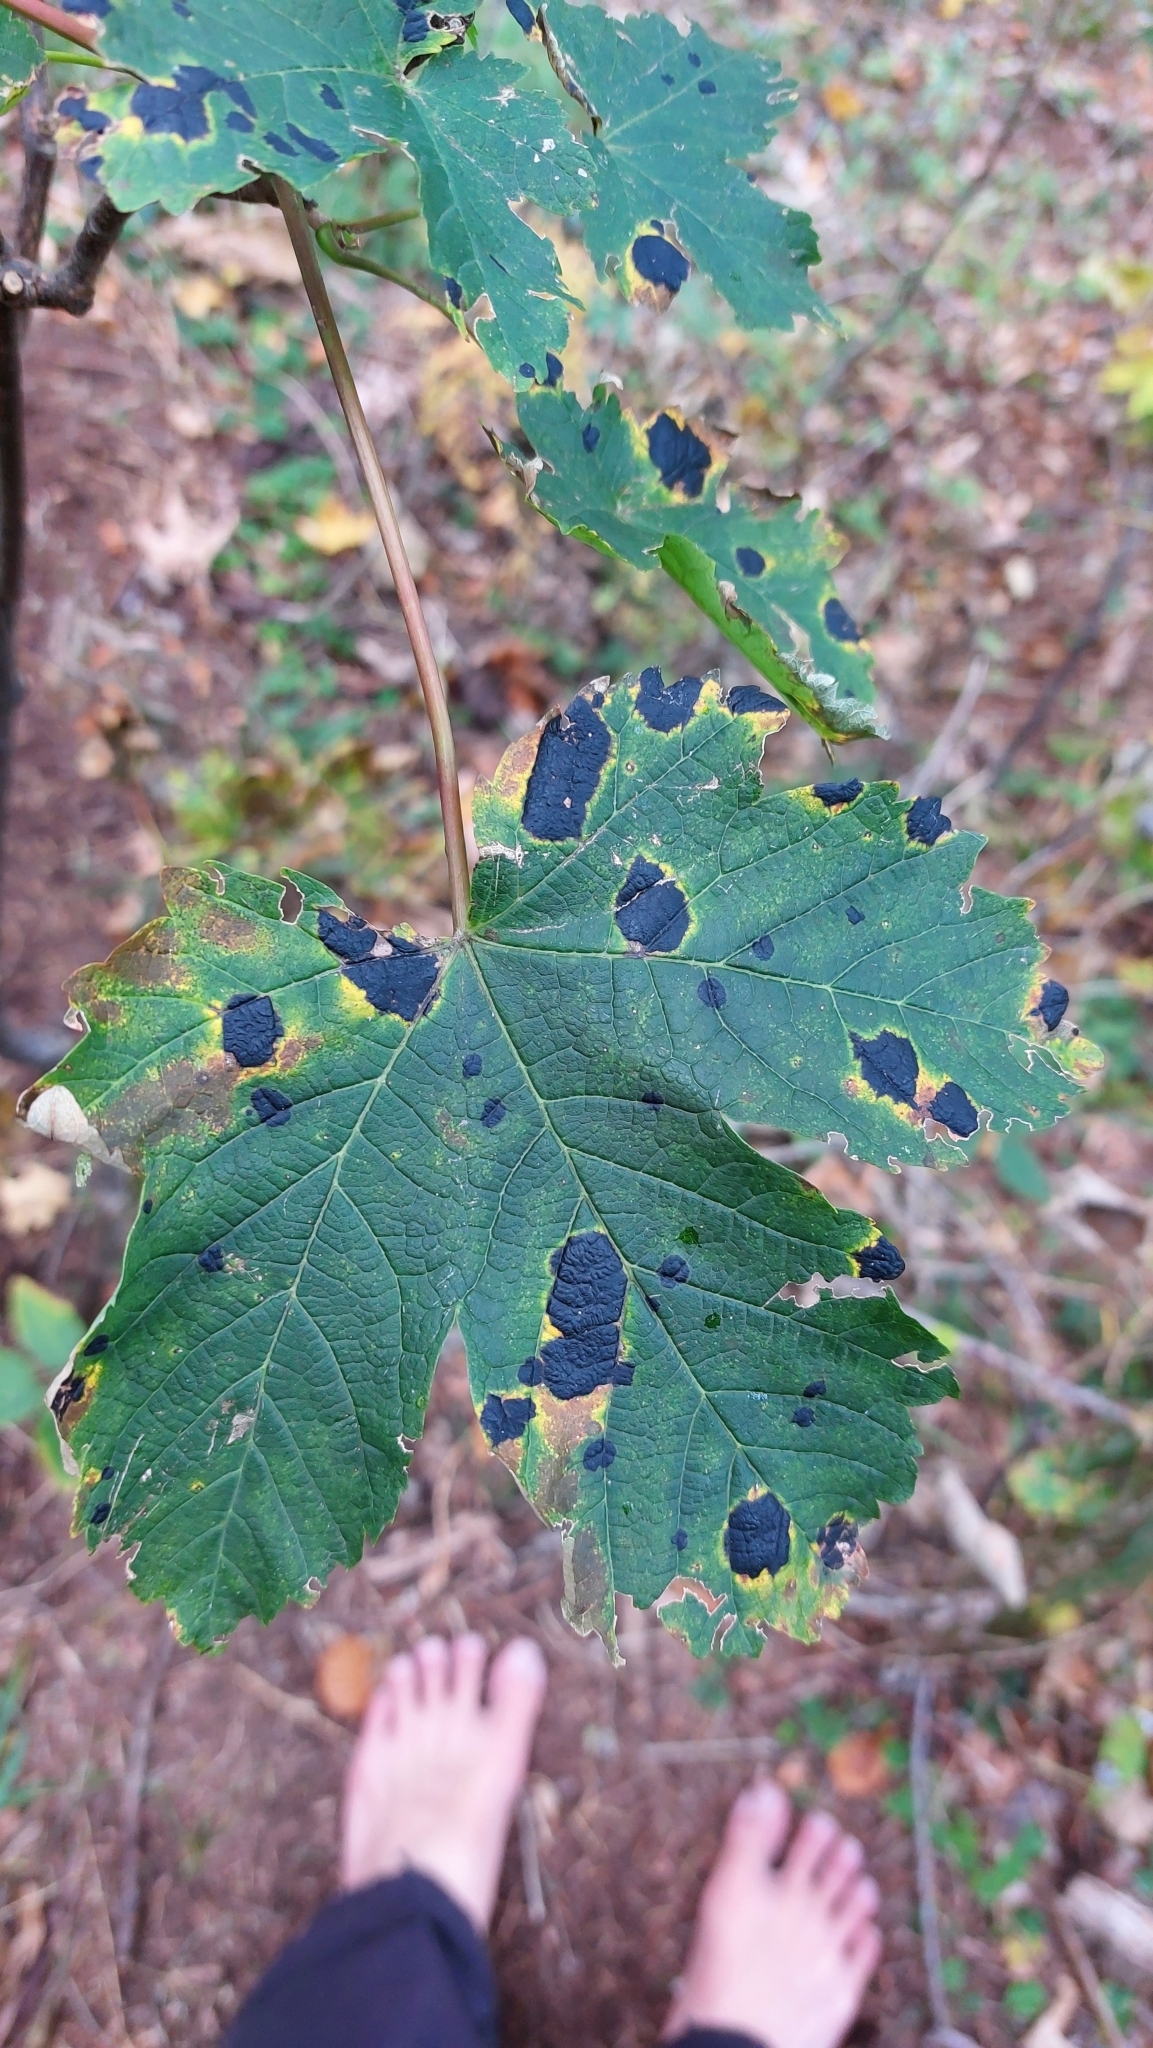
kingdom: Fungi
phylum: Ascomycota
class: Leotiomycetes
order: Rhytismatales
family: Rhytismataceae
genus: Rhytisma
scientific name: Rhytisma acerinum
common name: European tar spot
